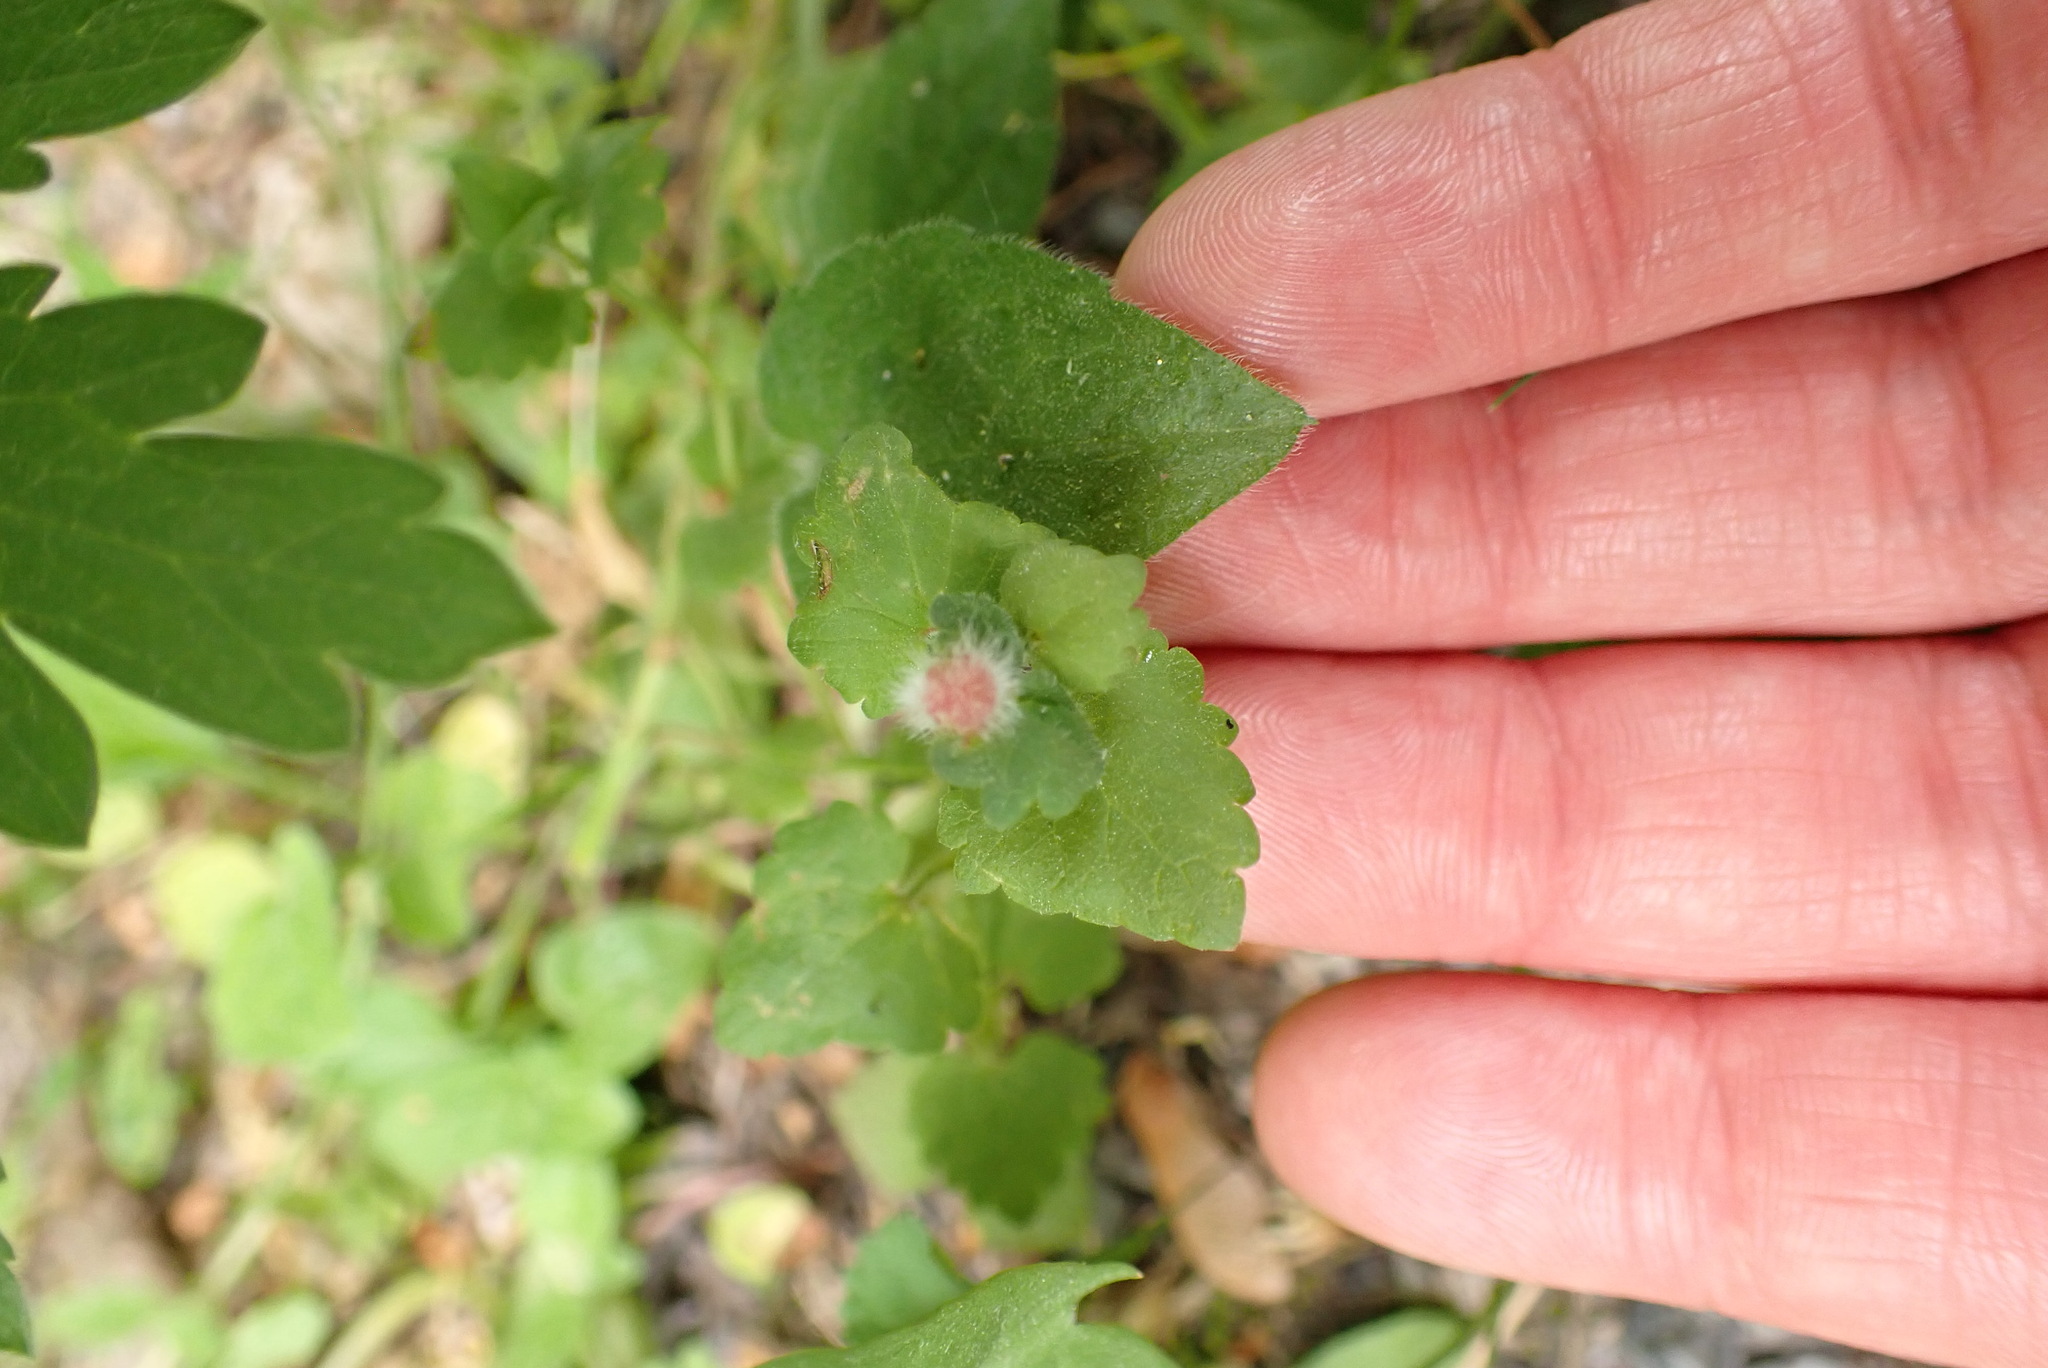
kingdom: Animalia
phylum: Arthropoda
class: Insecta
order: Hymenoptera
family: Cynipidae
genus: Liposthenes
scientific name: Liposthenes glechomae
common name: Gall wasp
